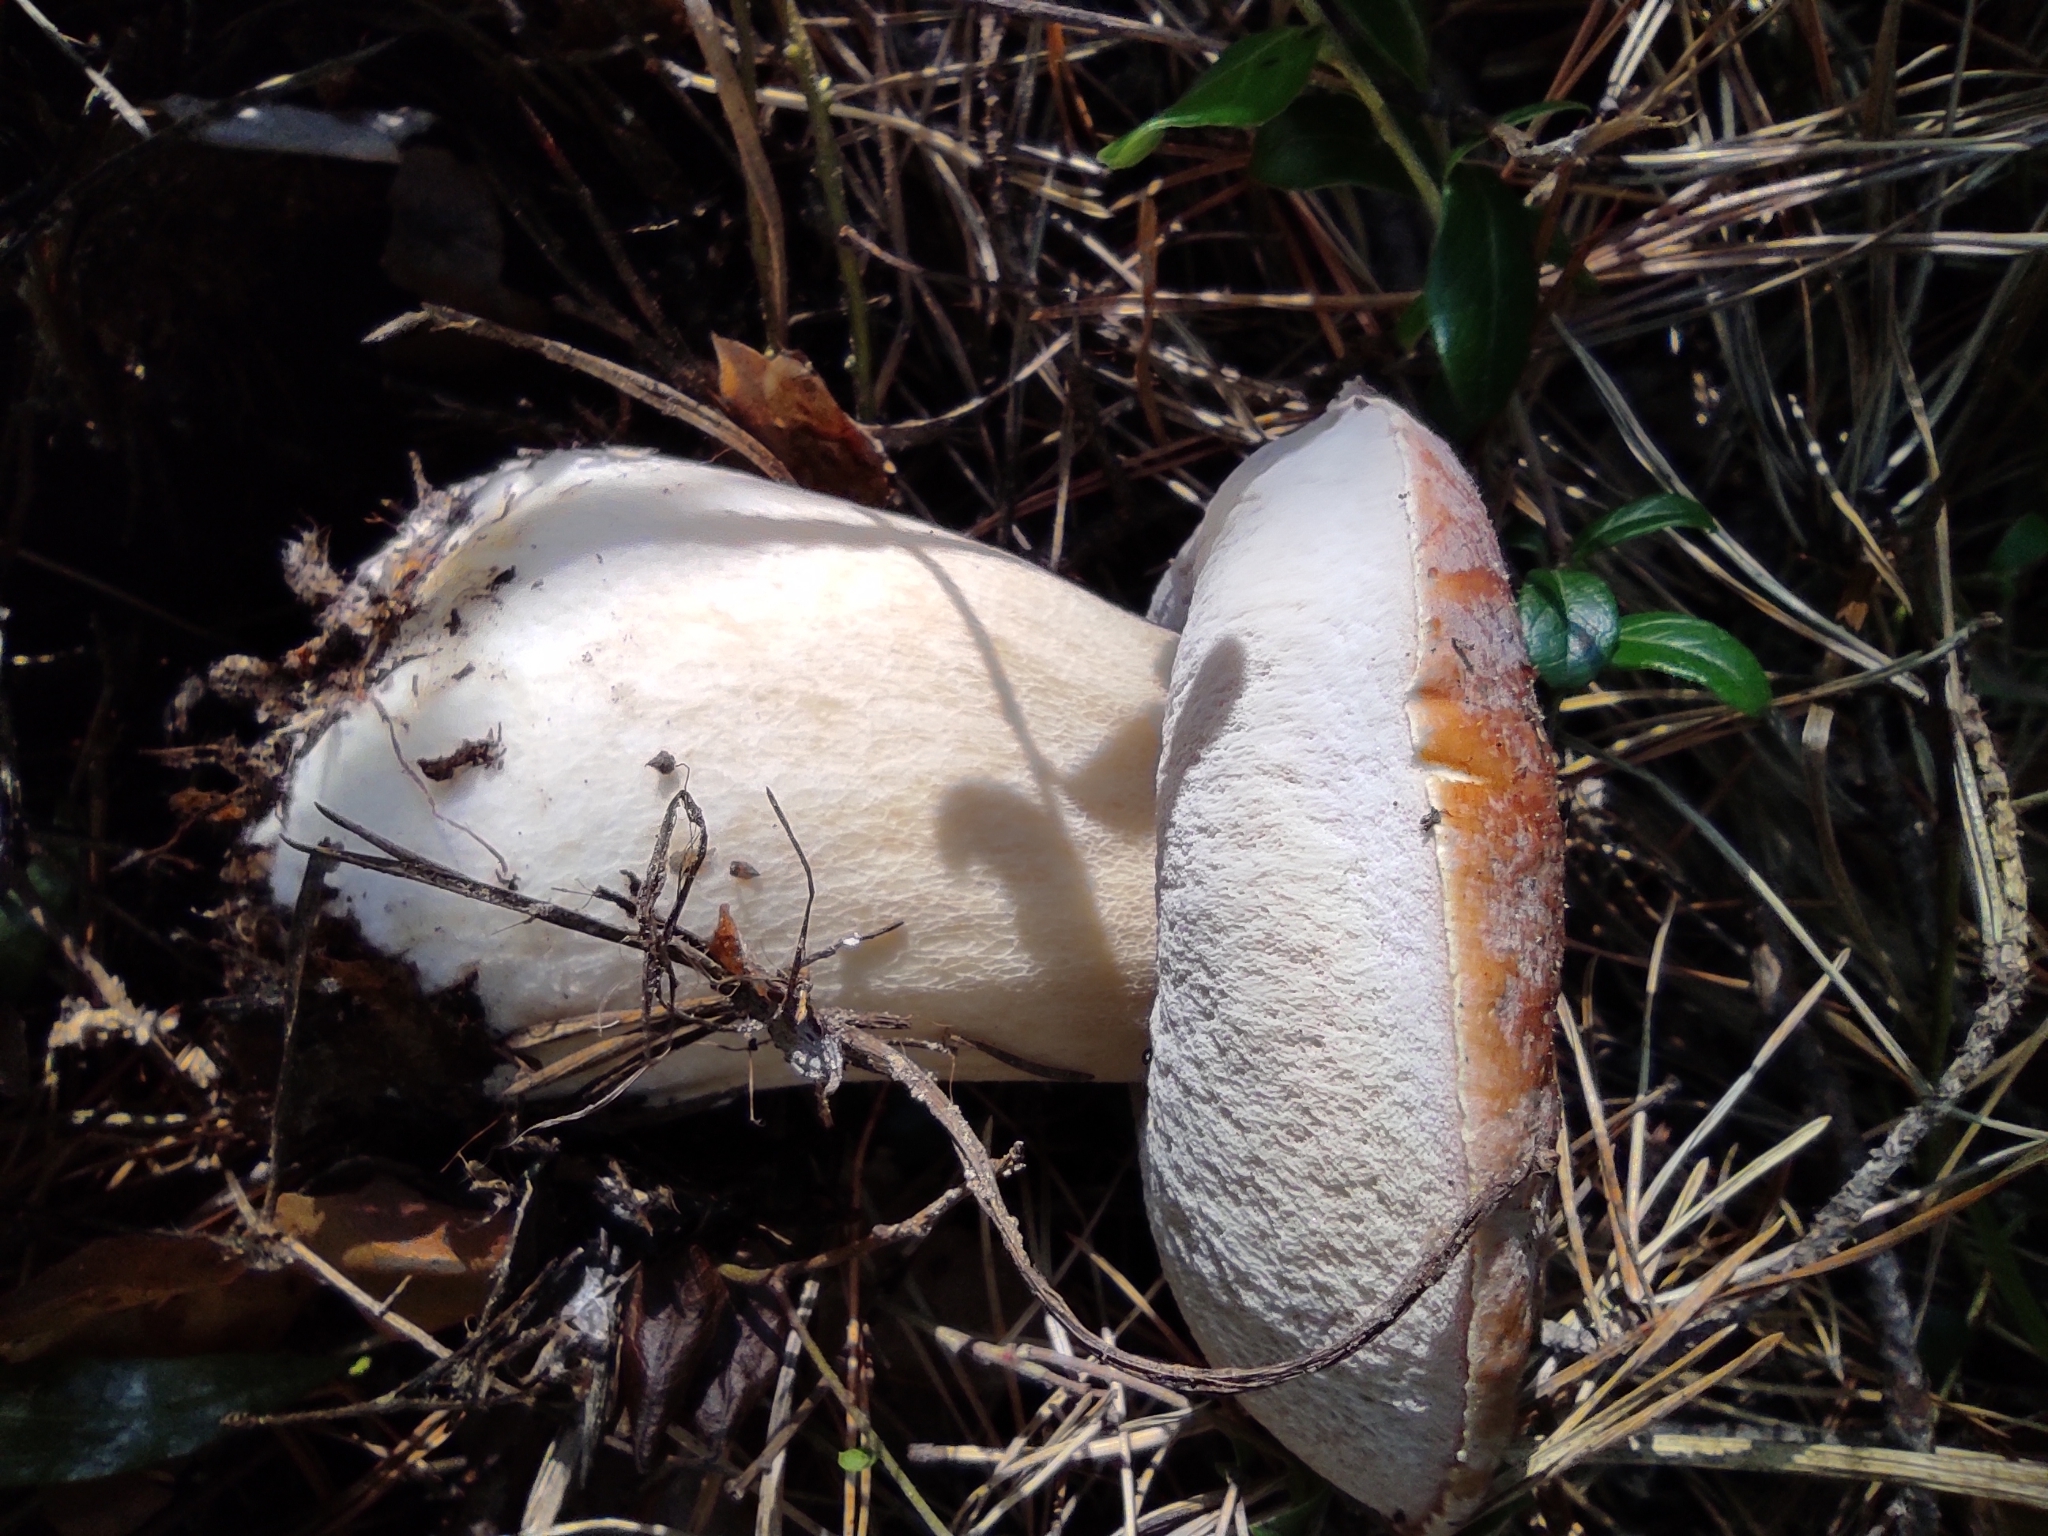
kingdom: Fungi
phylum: Basidiomycota
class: Agaricomycetes
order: Boletales
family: Boletaceae
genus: Boletus
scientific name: Boletus pinophilus
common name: Pine bolete
